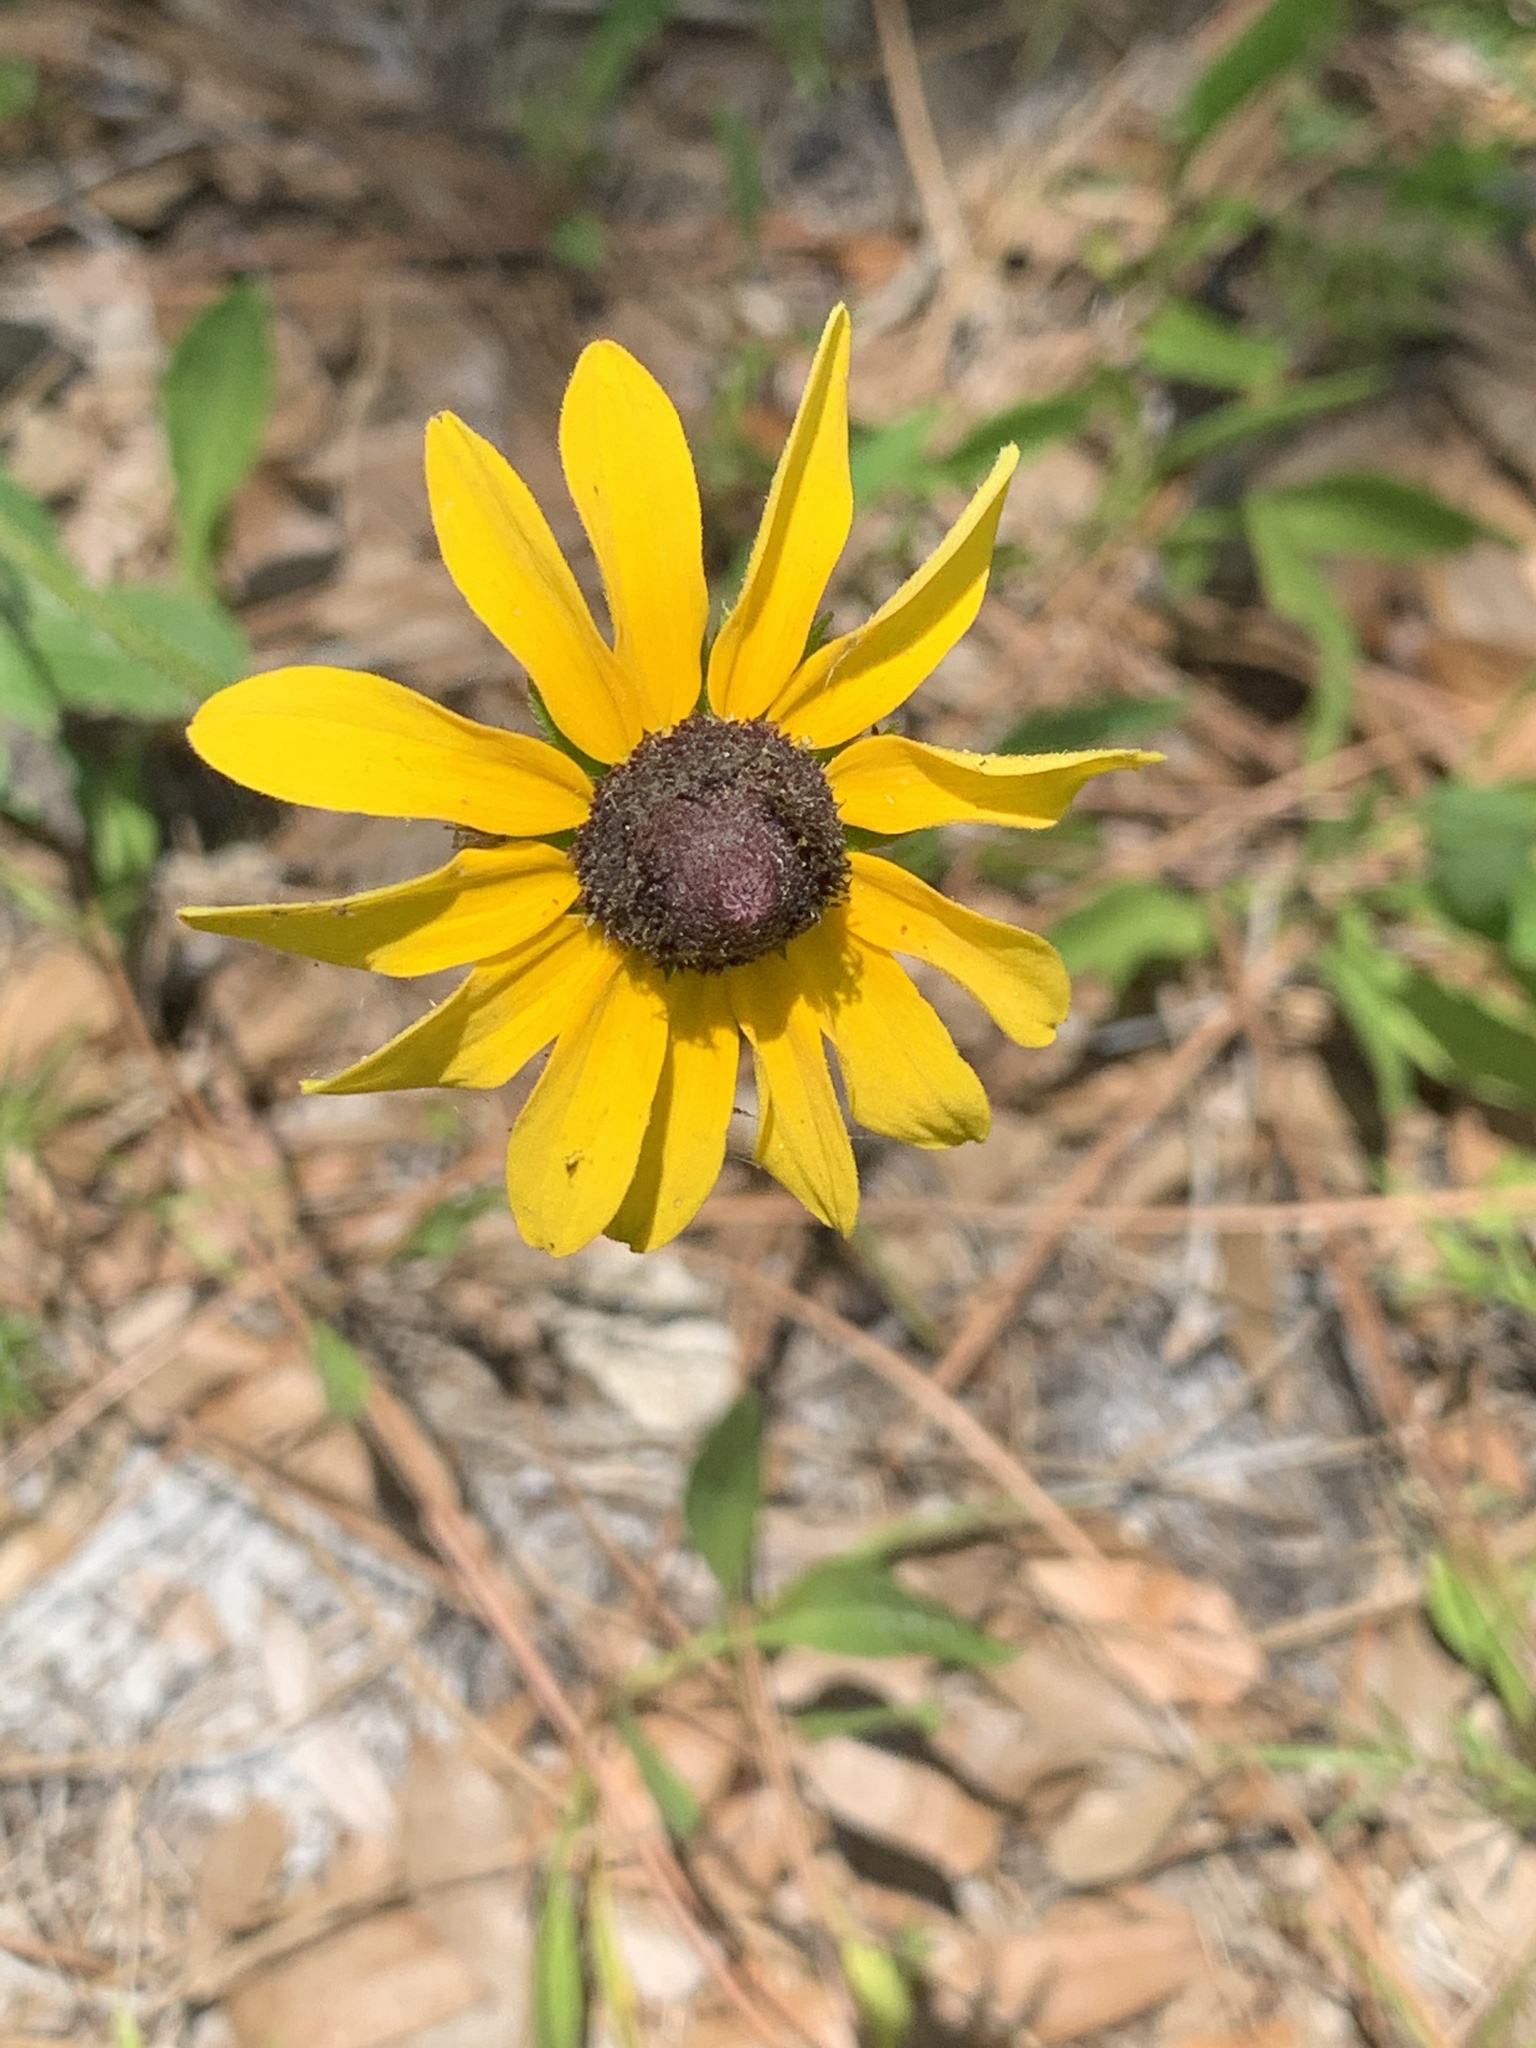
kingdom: Plantae
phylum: Tracheophyta
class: Magnoliopsida
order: Asterales
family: Asteraceae
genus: Rudbeckia
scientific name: Rudbeckia hirta
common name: Black-eyed-susan
